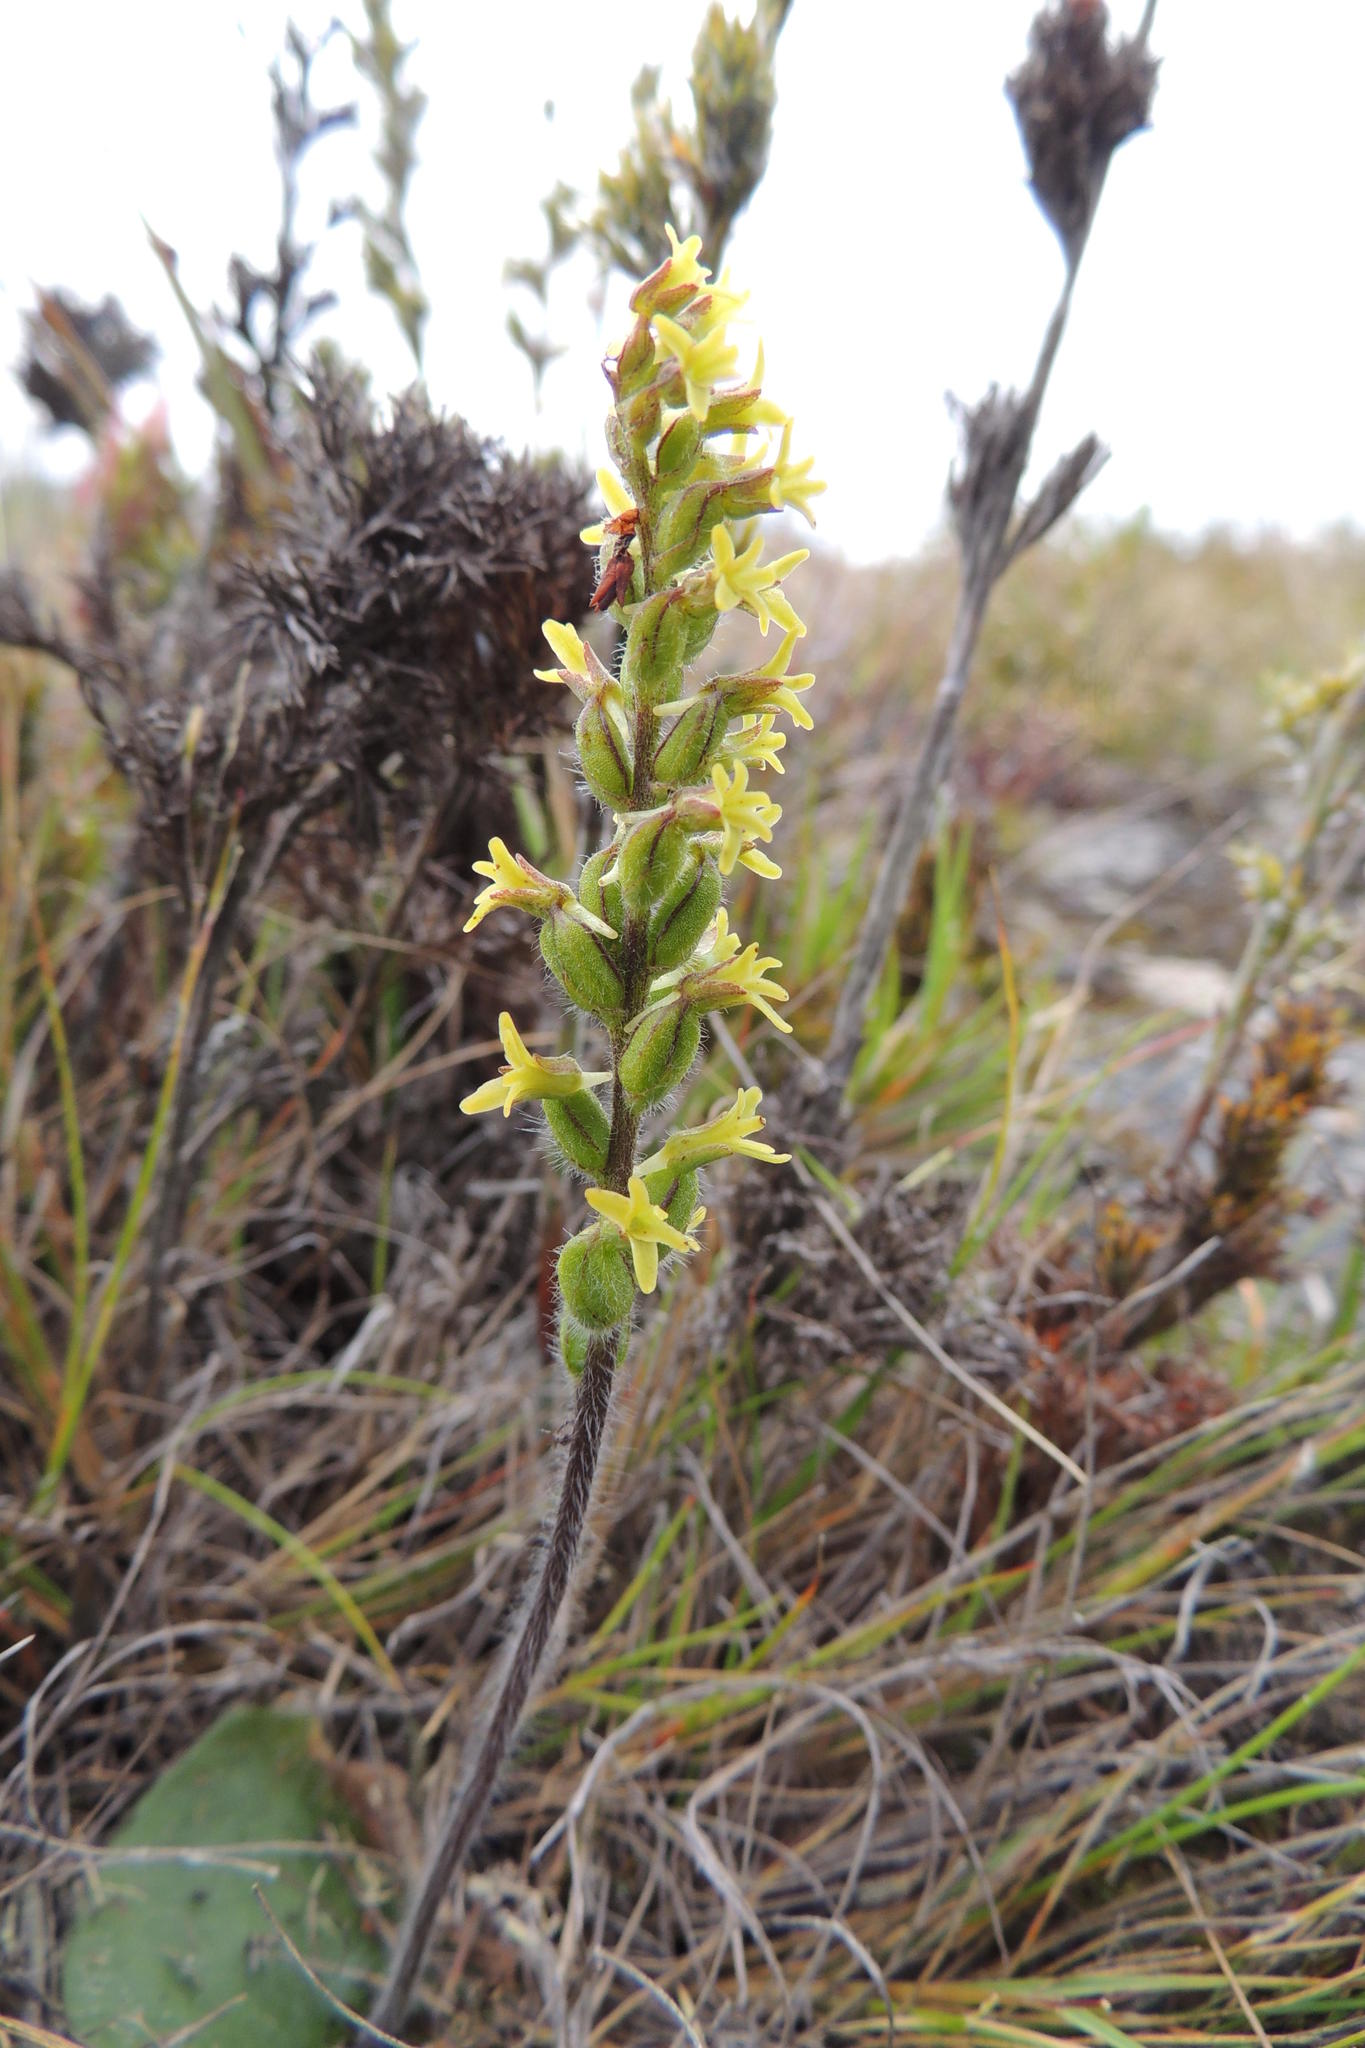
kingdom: Plantae
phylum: Tracheophyta
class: Liliopsida
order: Asparagales
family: Orchidaceae
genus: Holothrix
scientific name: Holothrix villosa
